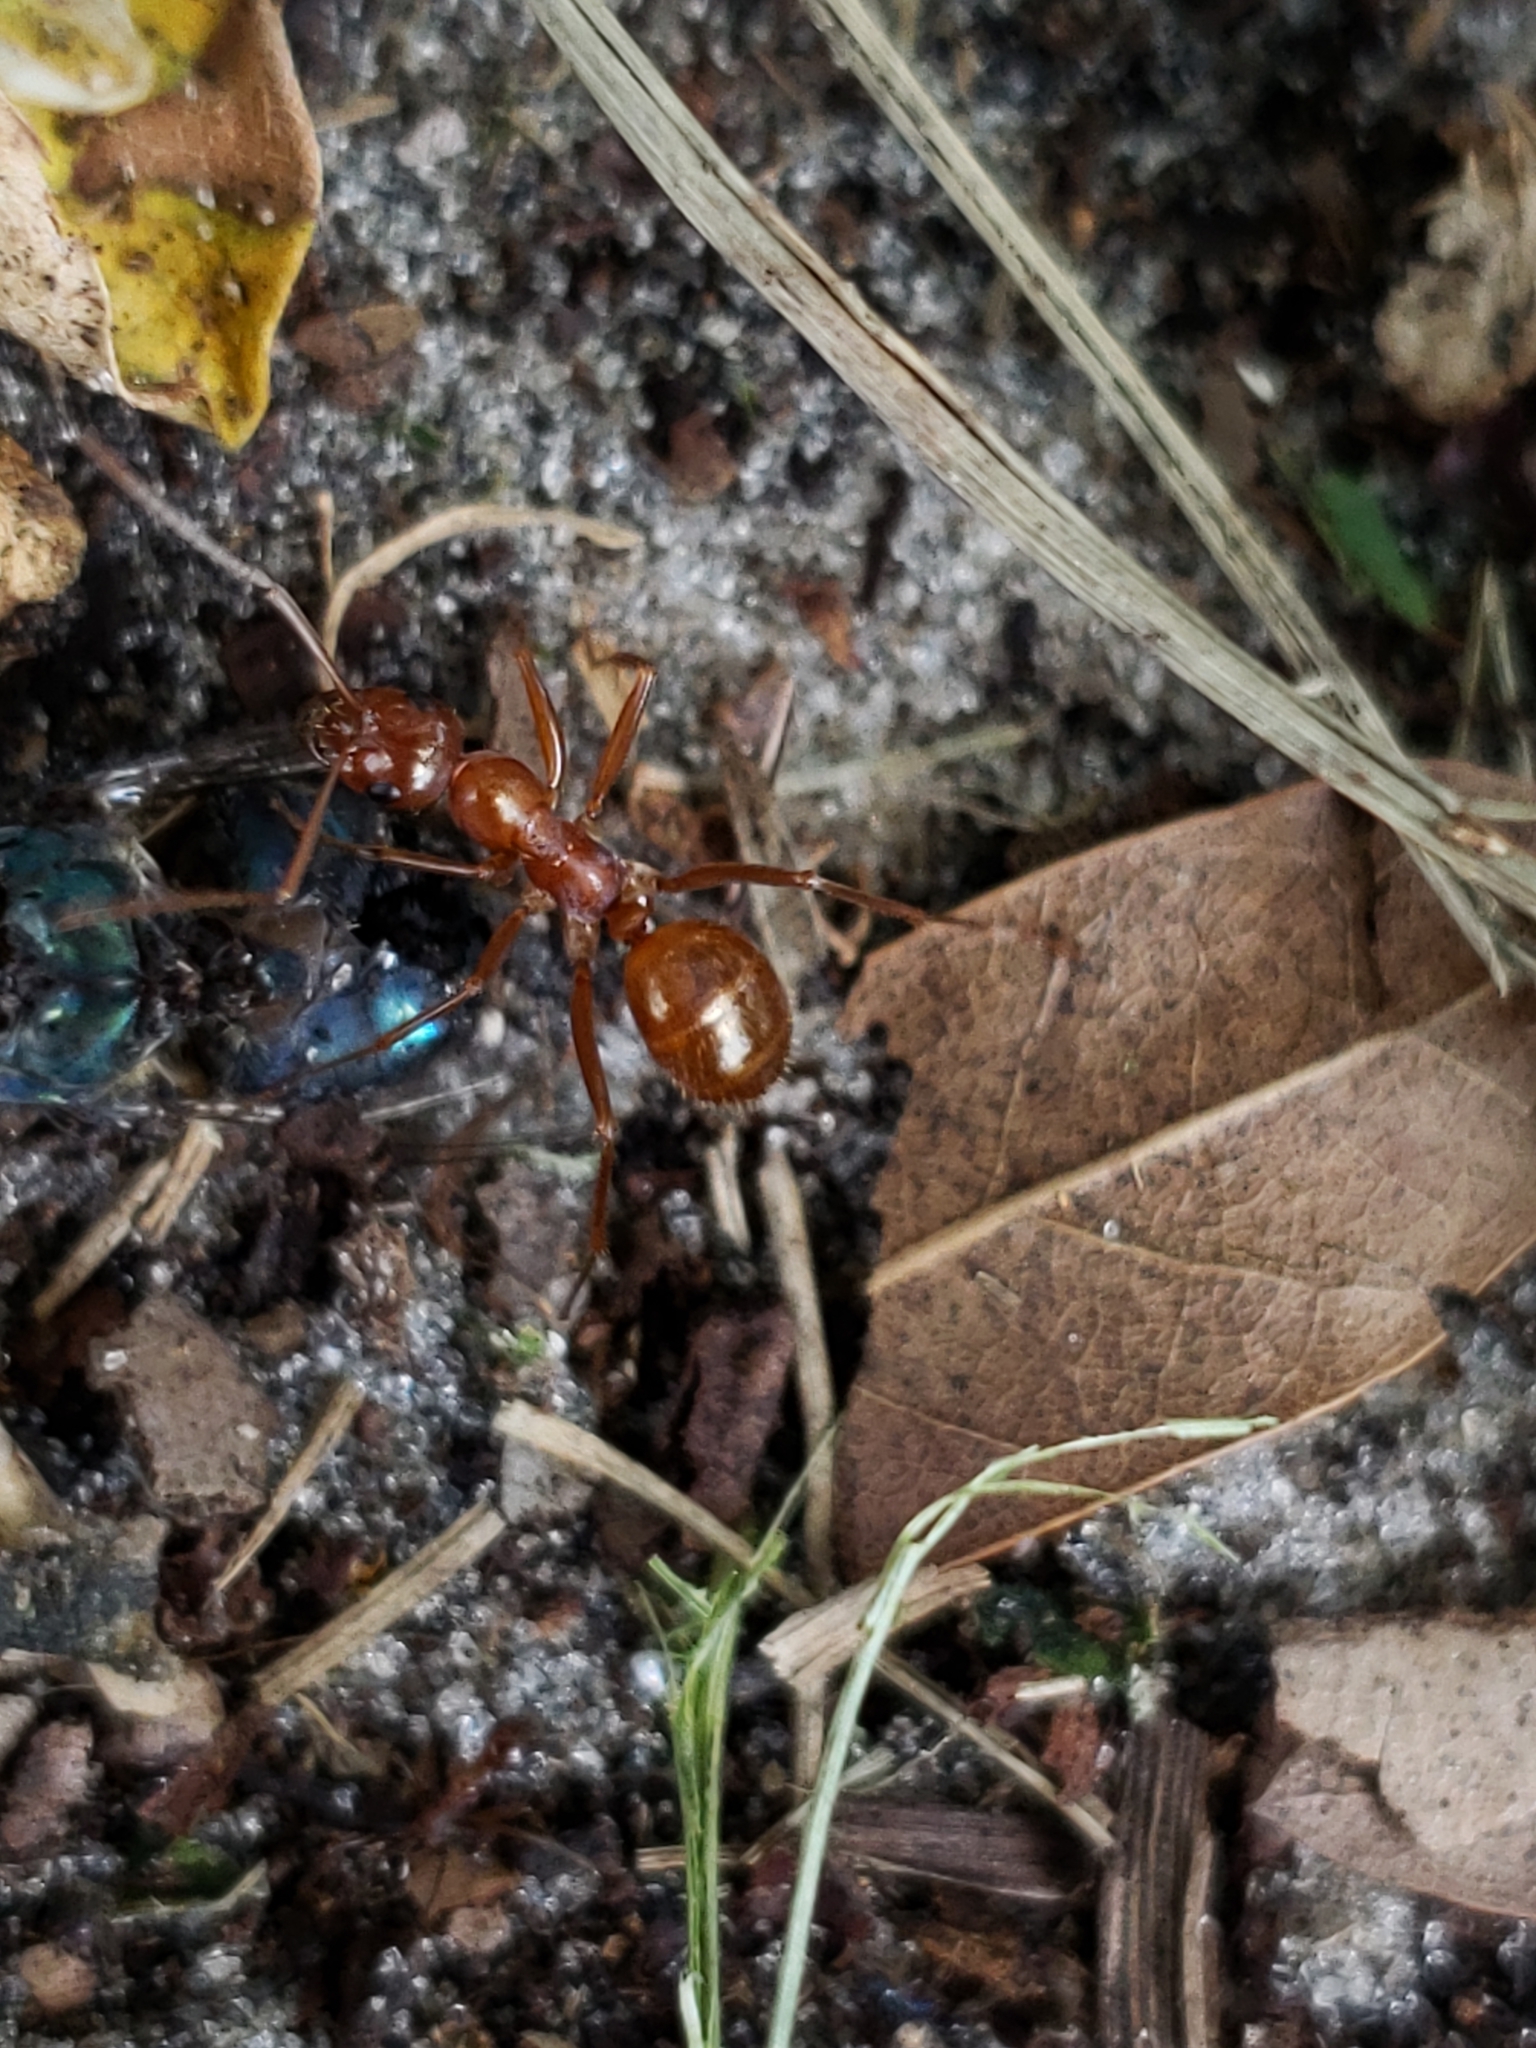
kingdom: Animalia
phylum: Arthropoda
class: Insecta
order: Hymenoptera
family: Formicidae
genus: Formica
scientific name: Formica pallidefulva
